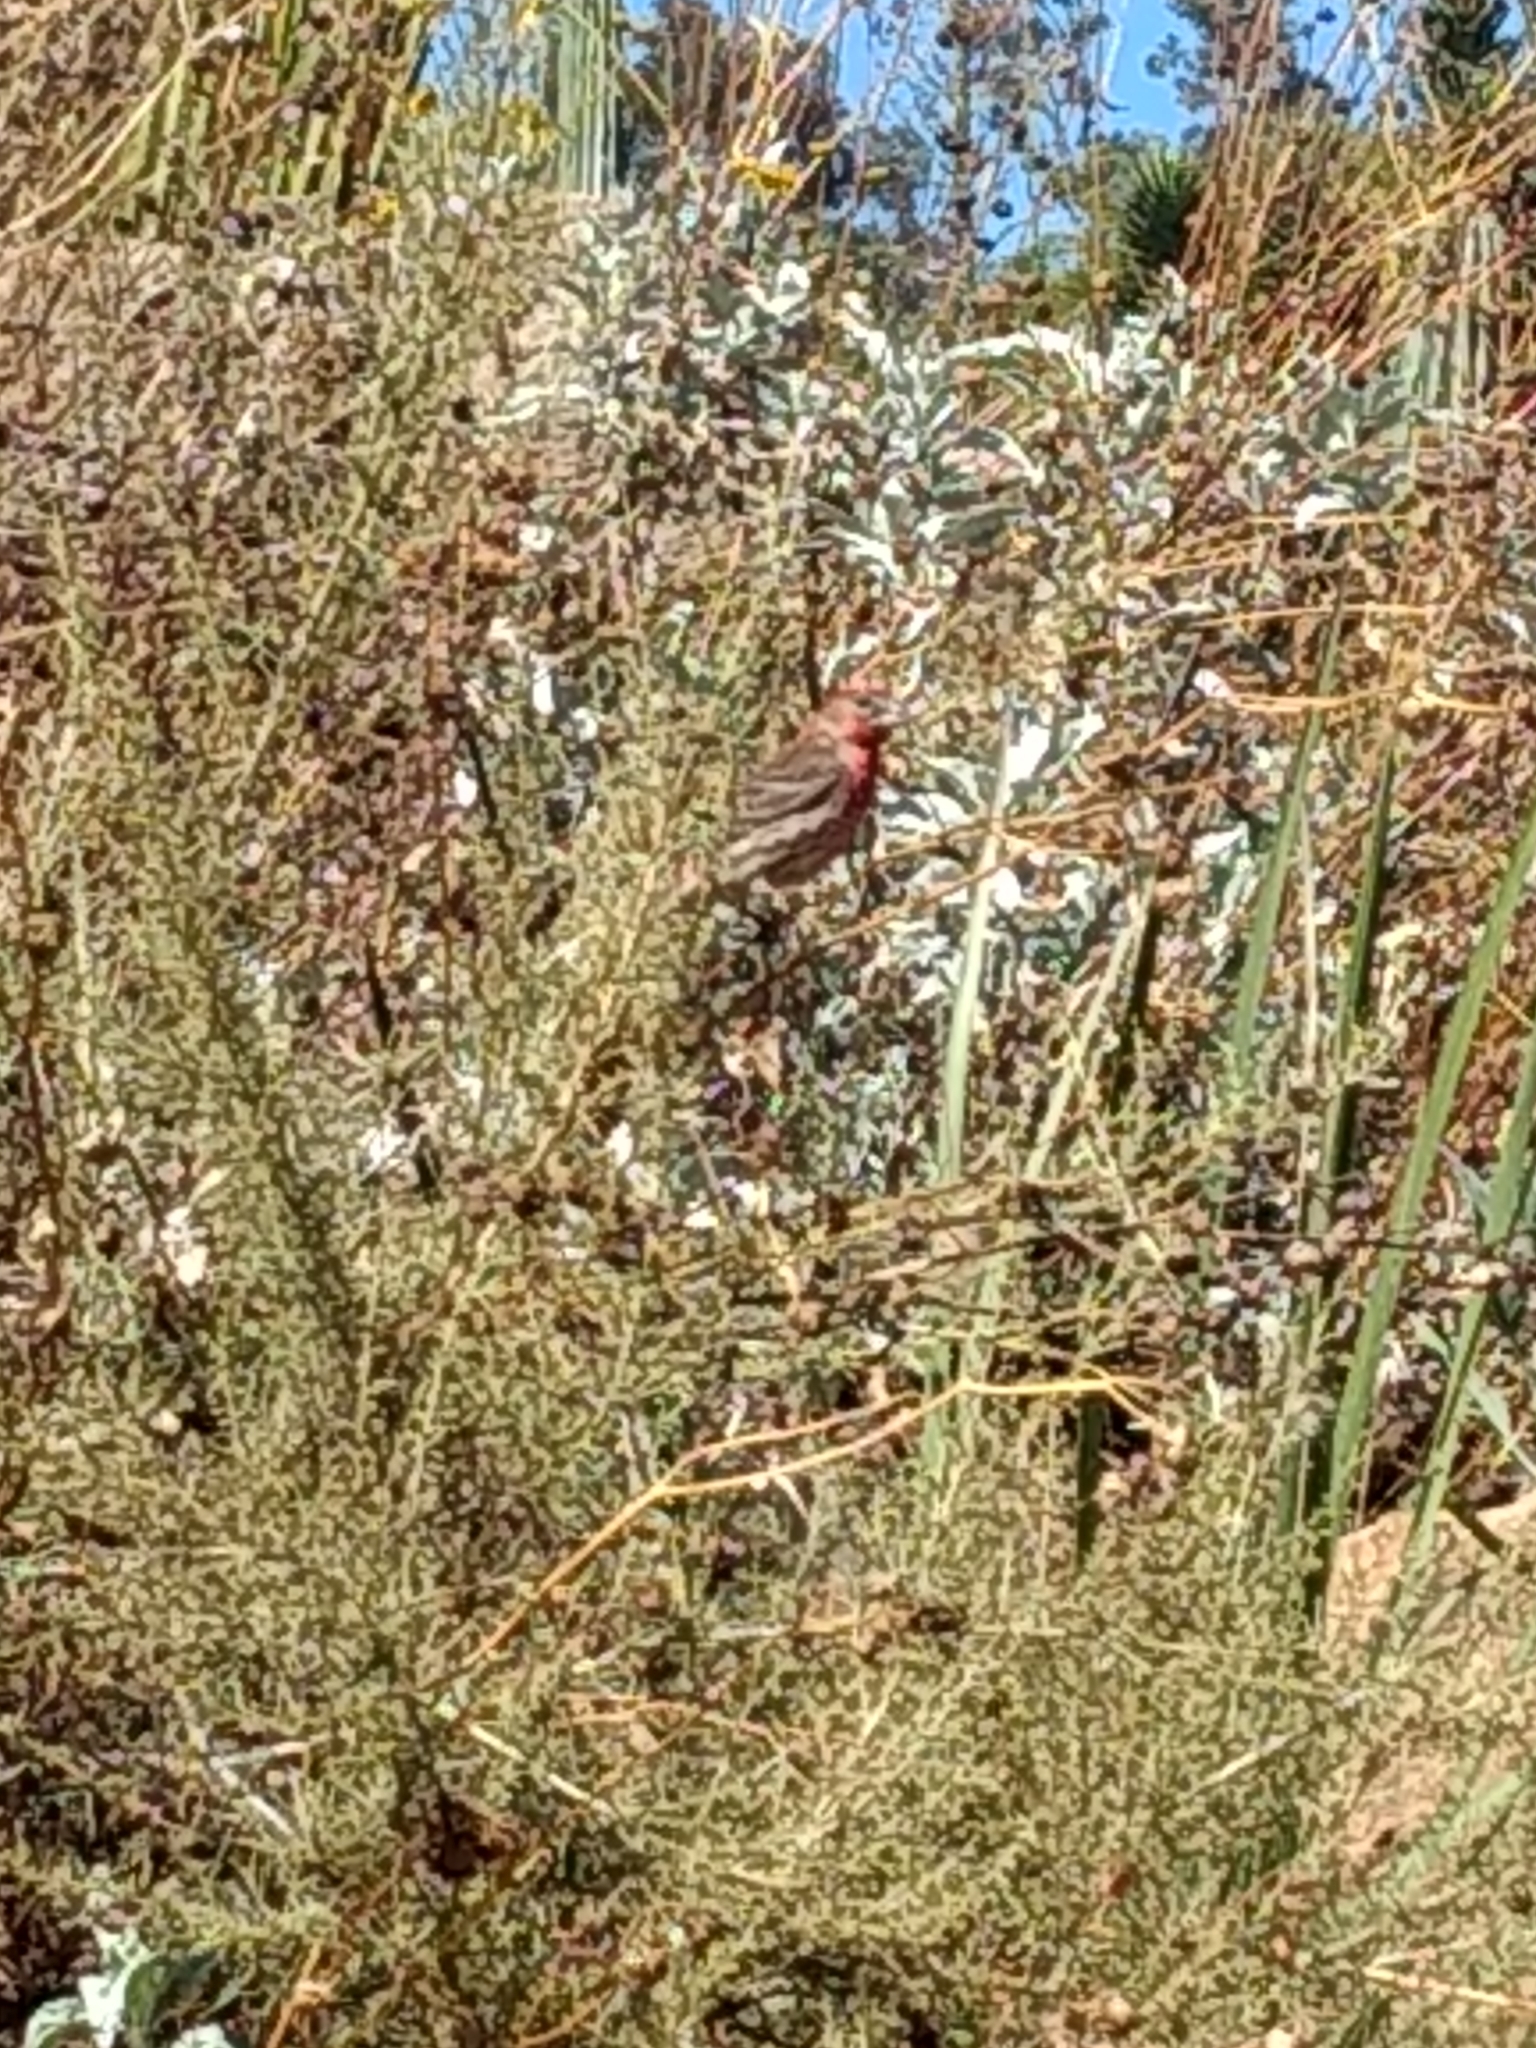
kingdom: Animalia
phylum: Chordata
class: Aves
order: Passeriformes
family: Fringillidae
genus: Haemorhous
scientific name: Haemorhous mexicanus
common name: House finch
